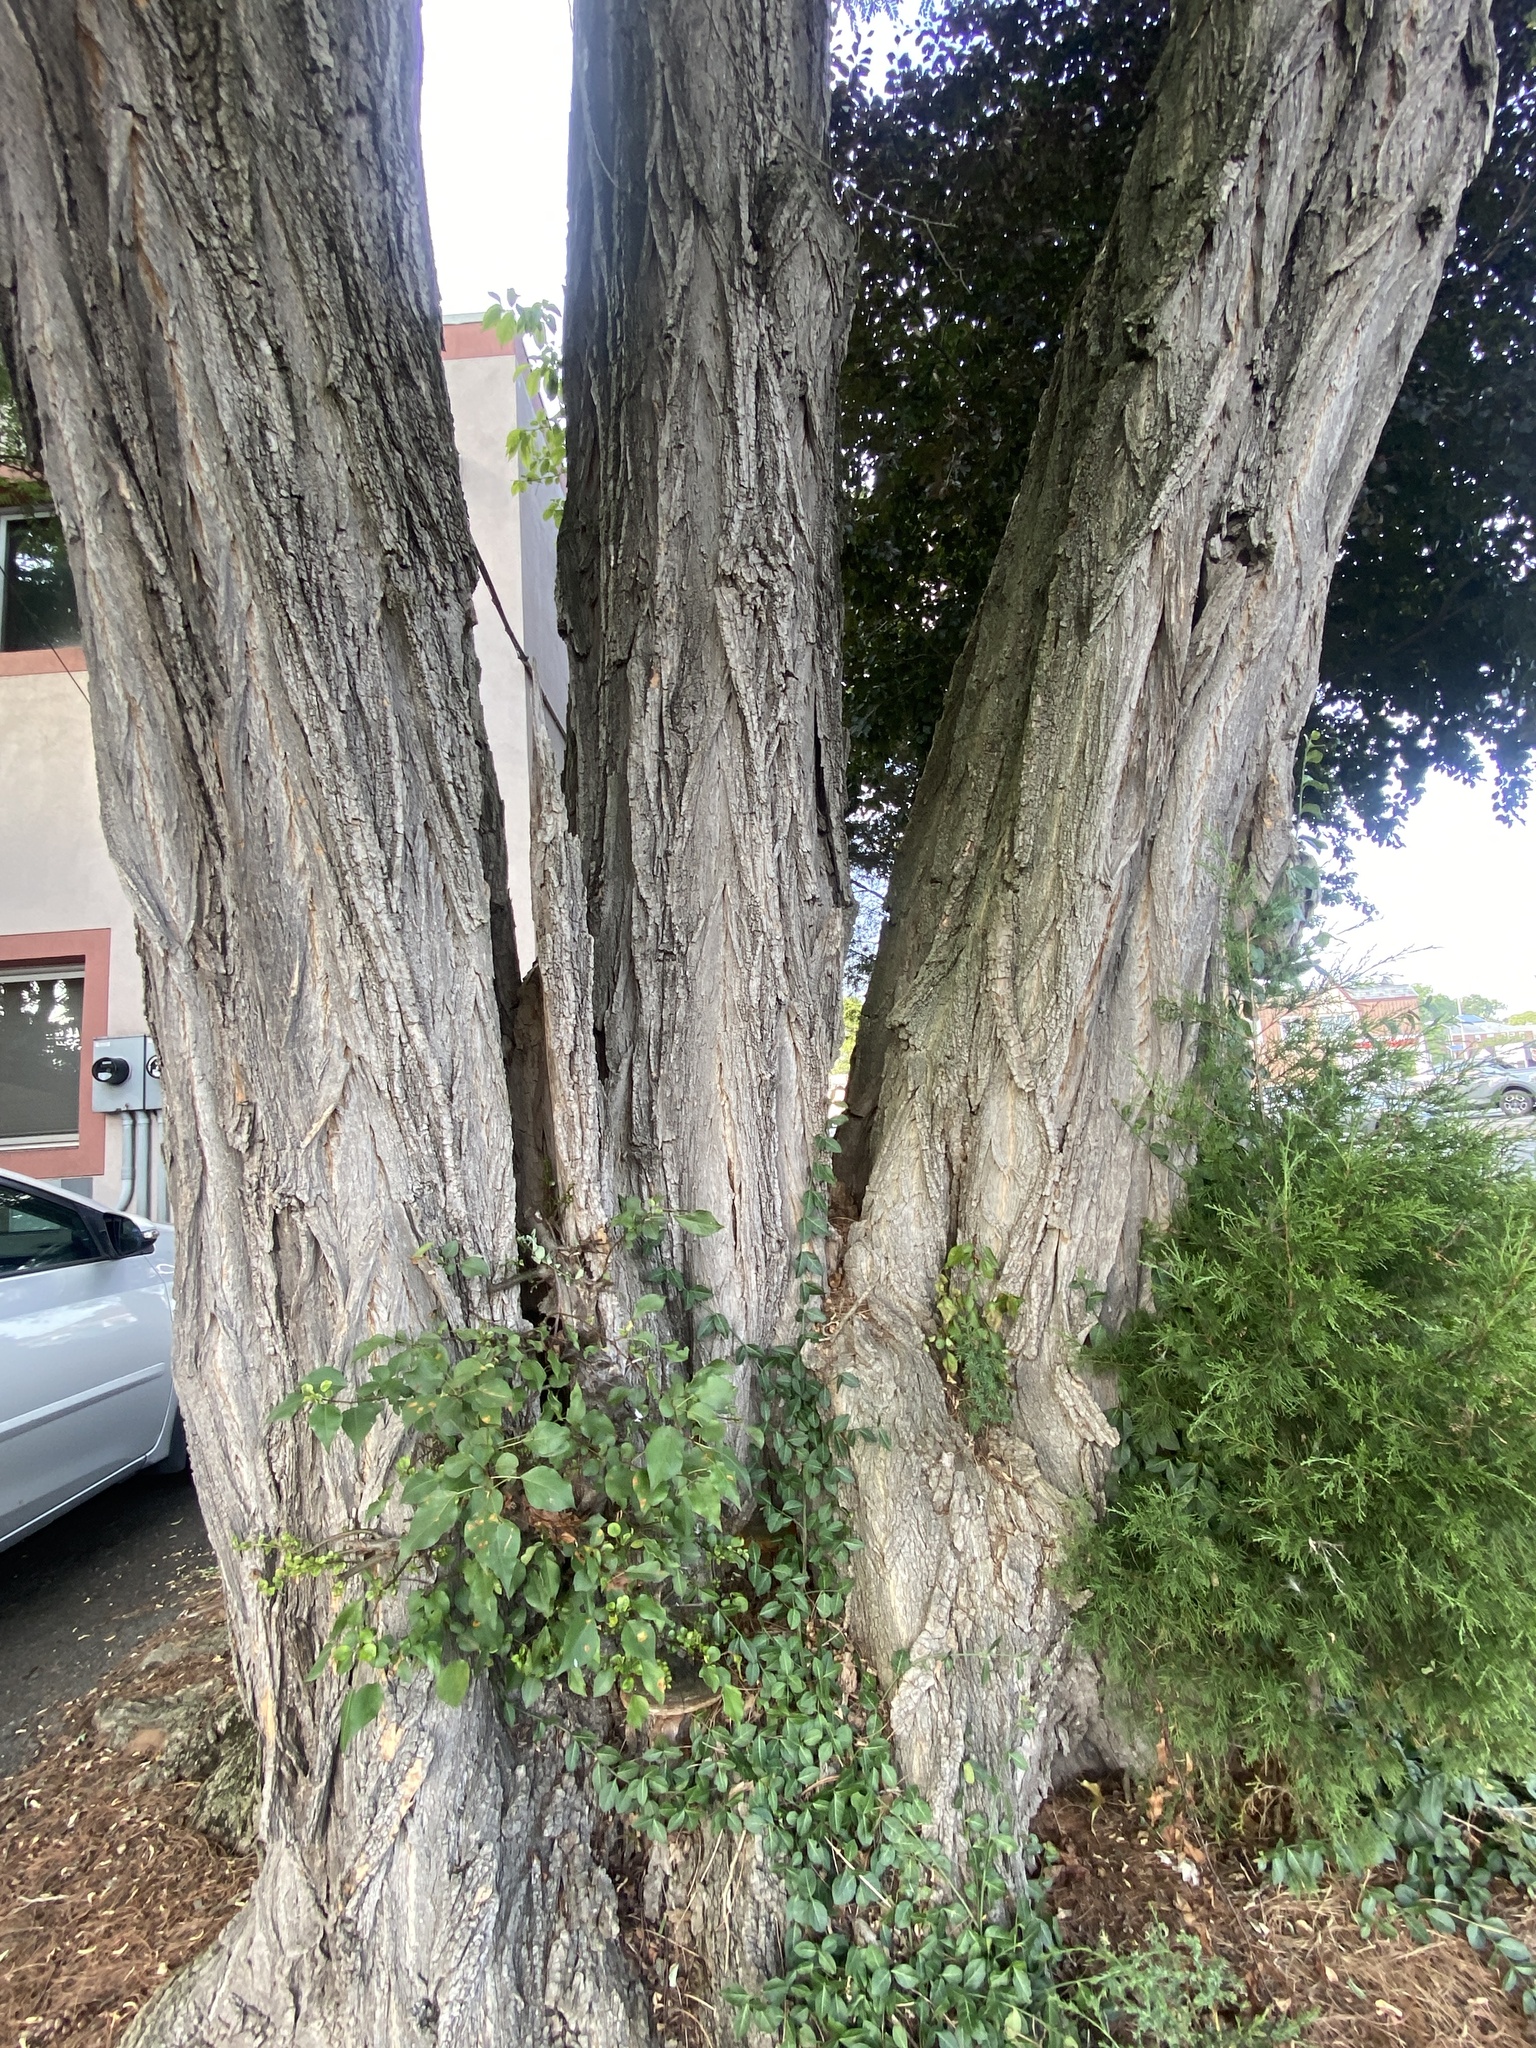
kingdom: Plantae
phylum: Tracheophyta
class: Pinopsida
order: Pinales
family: Cupressaceae
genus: Juniperus
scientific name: Juniperus virginiana
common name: Red juniper
